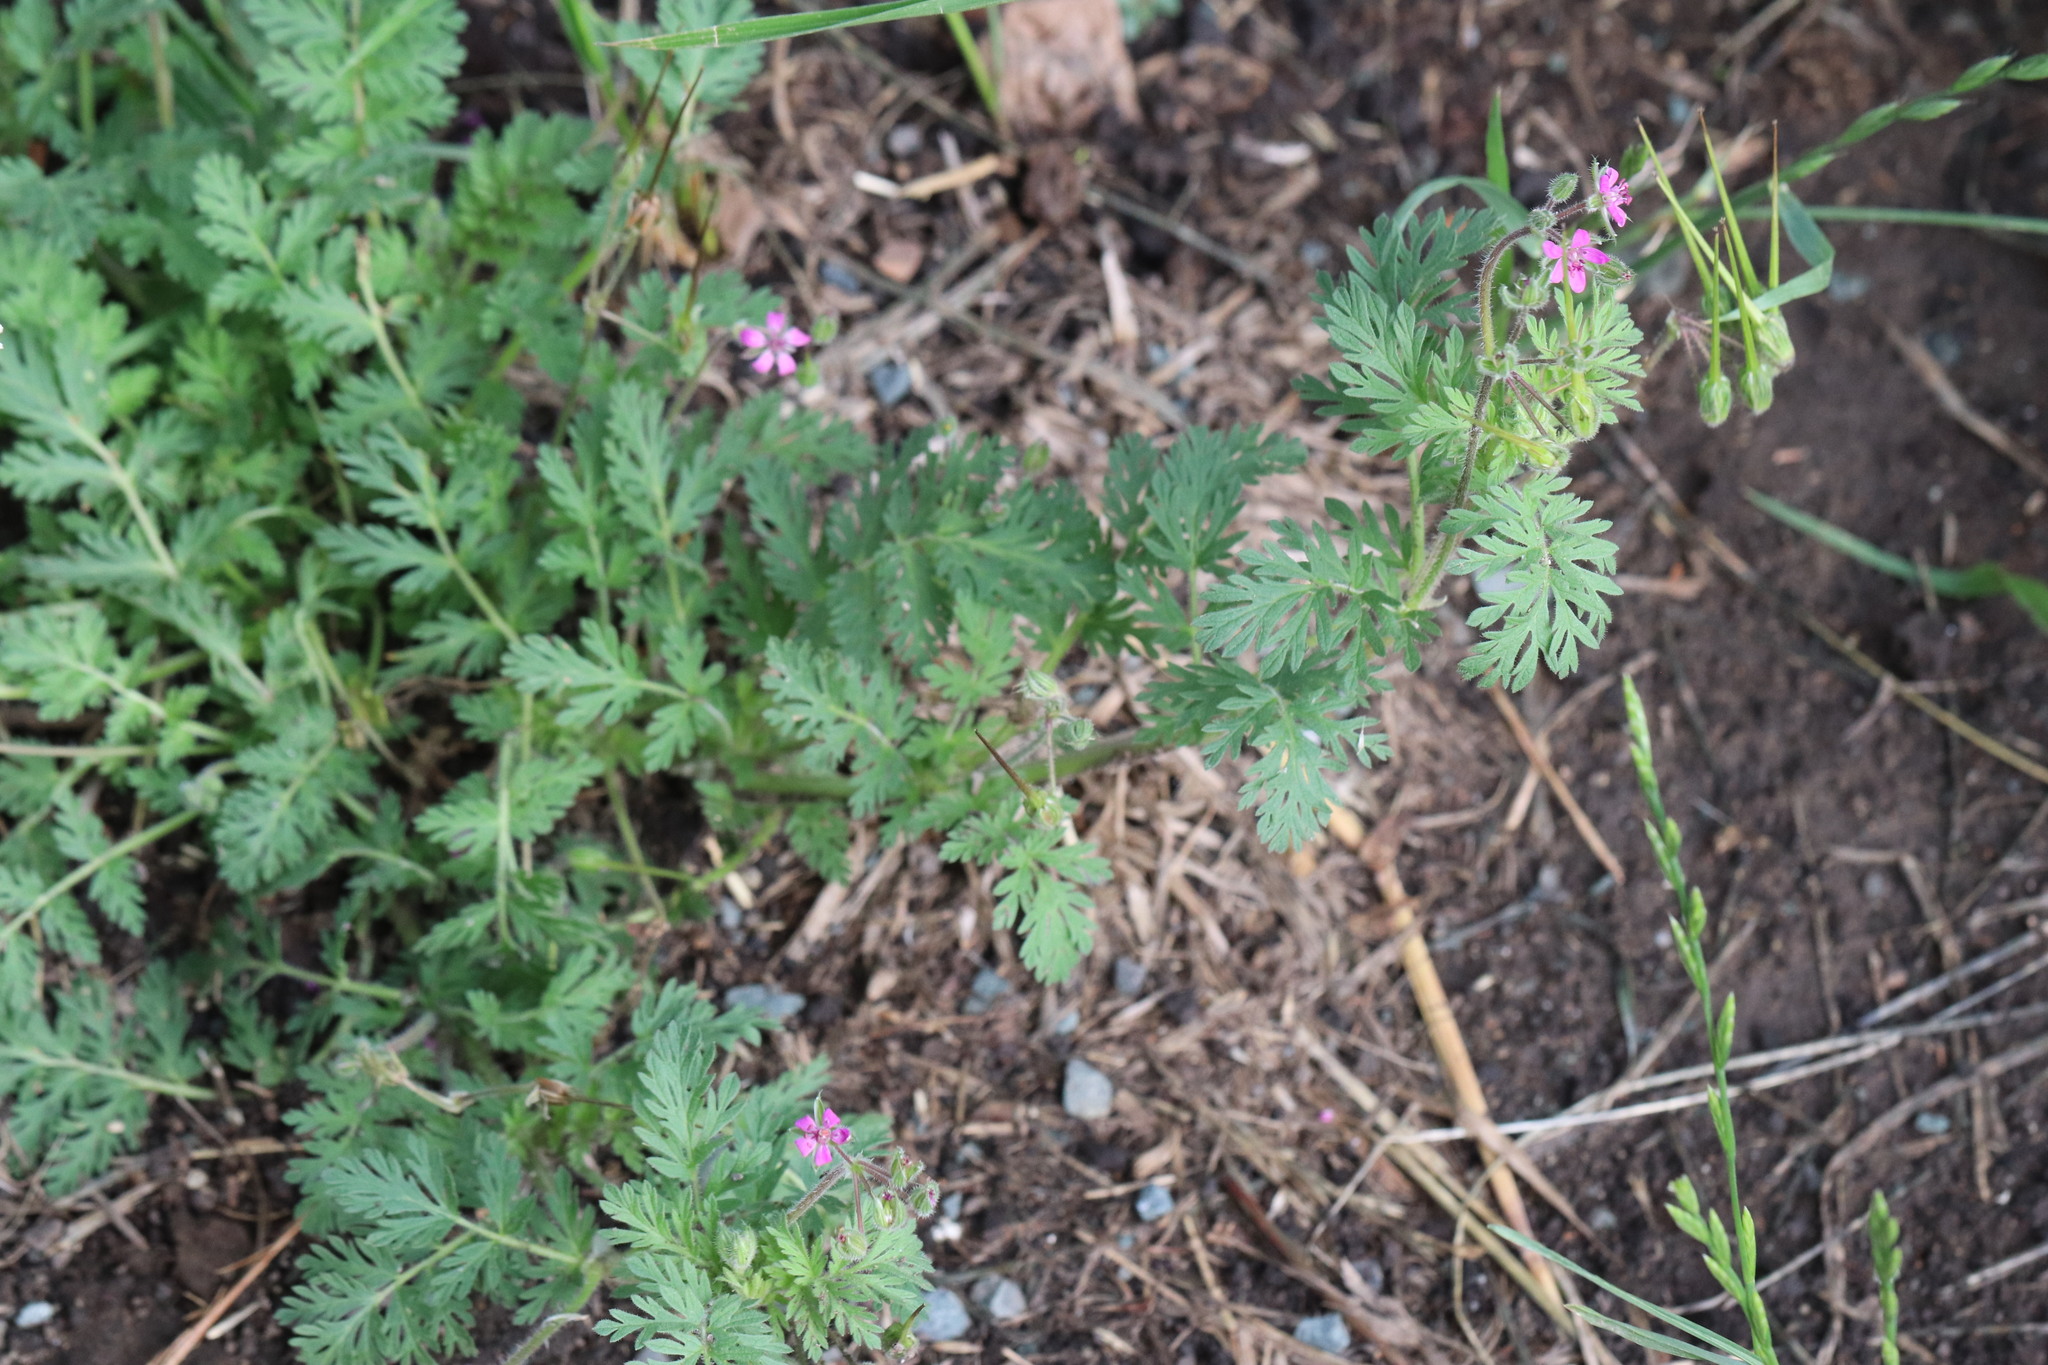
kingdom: Plantae
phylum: Tracheophyta
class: Magnoliopsida
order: Geraniales
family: Geraniaceae
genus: Erodium
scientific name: Erodium cicutarium
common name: Common stork's-bill
